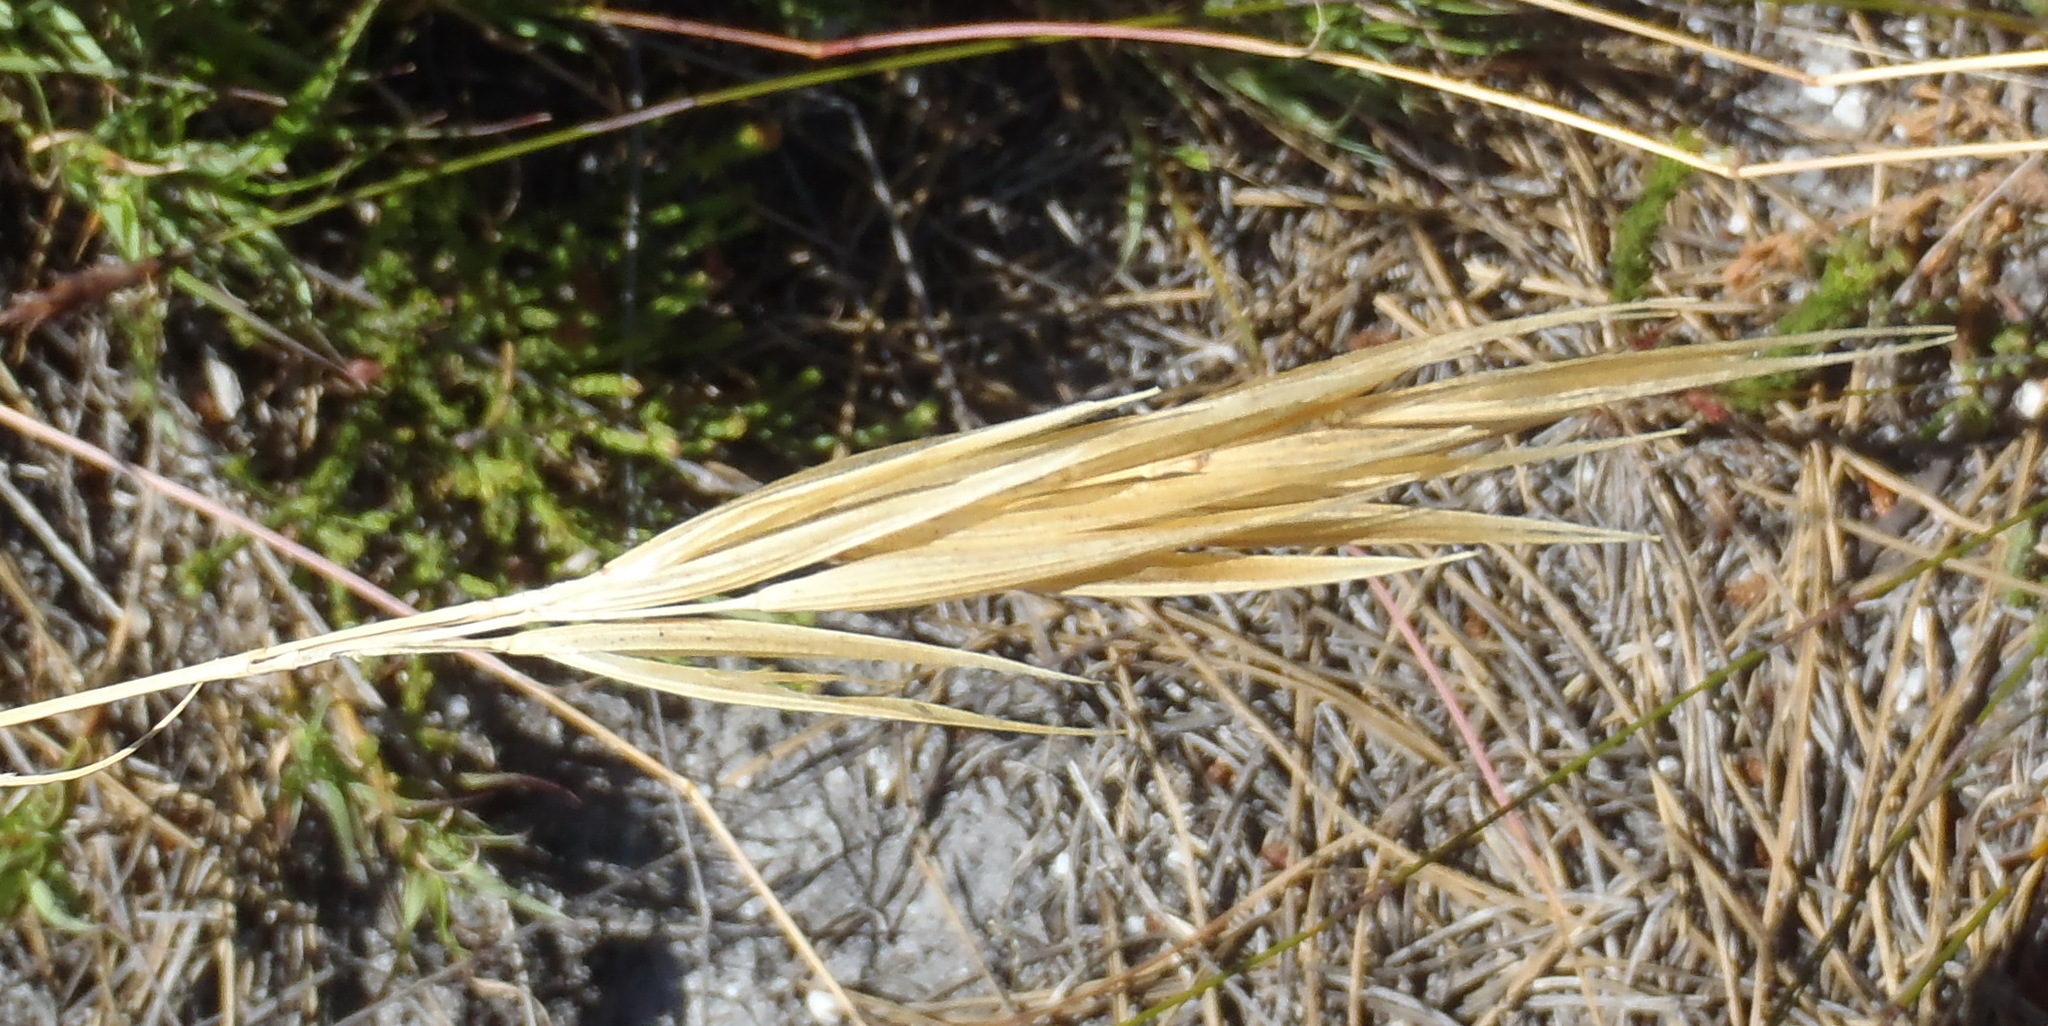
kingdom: Plantae
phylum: Tracheophyta
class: Liliopsida
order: Poales
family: Poaceae
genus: Pseudopentameris
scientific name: Pseudopentameris brachyphylla
